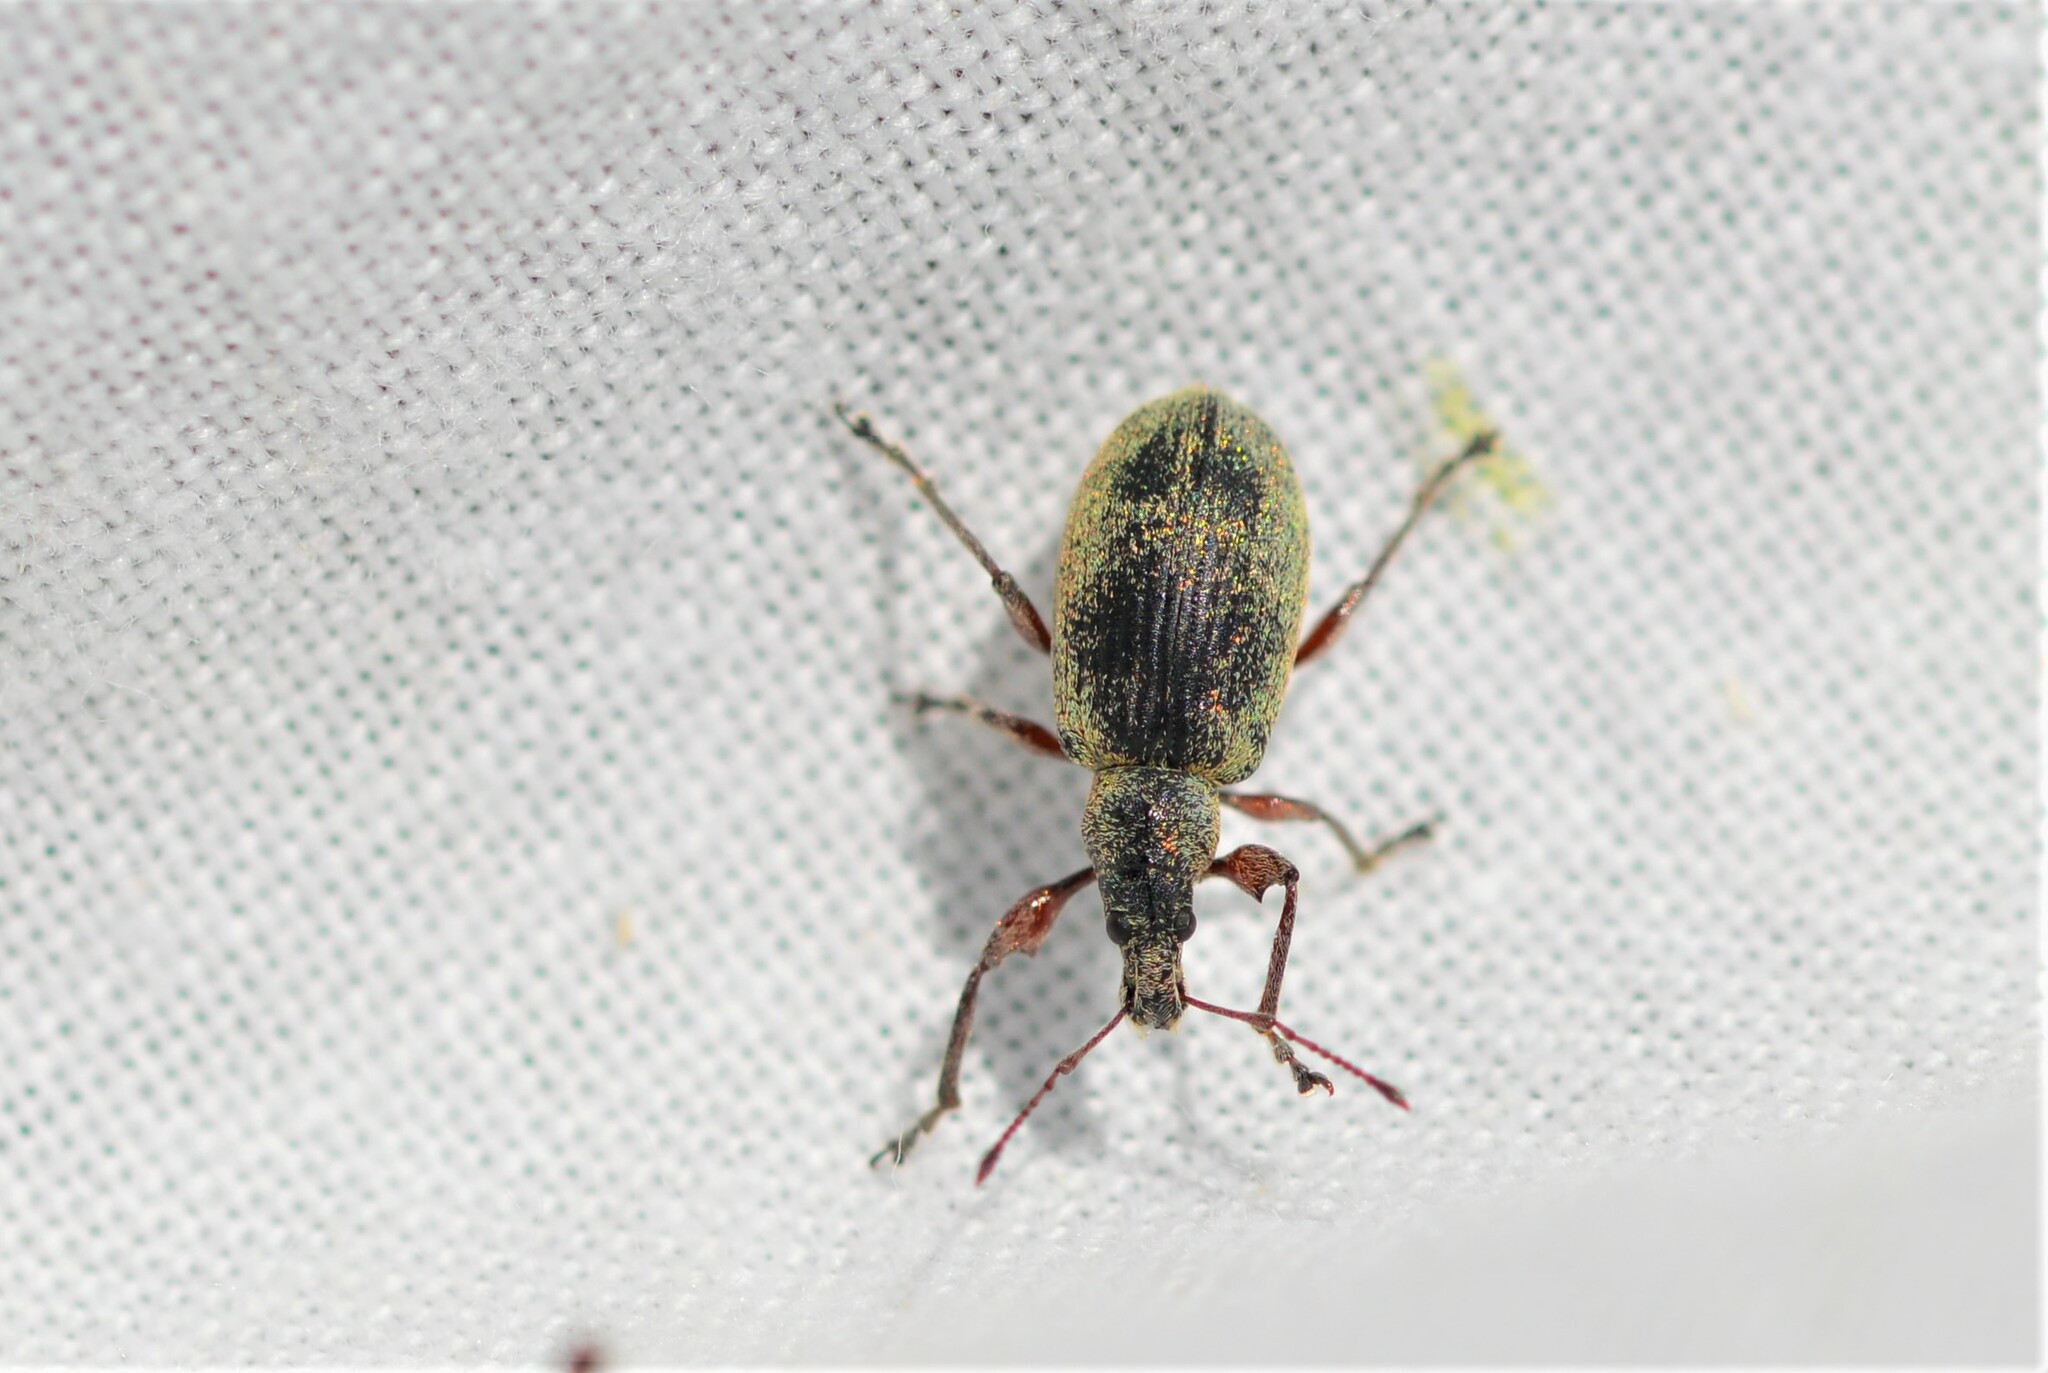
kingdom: Animalia
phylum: Arthropoda
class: Insecta
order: Coleoptera
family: Curculionidae
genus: Phyllobius
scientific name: Phyllobius pomaceus
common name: Green nettle weevil
